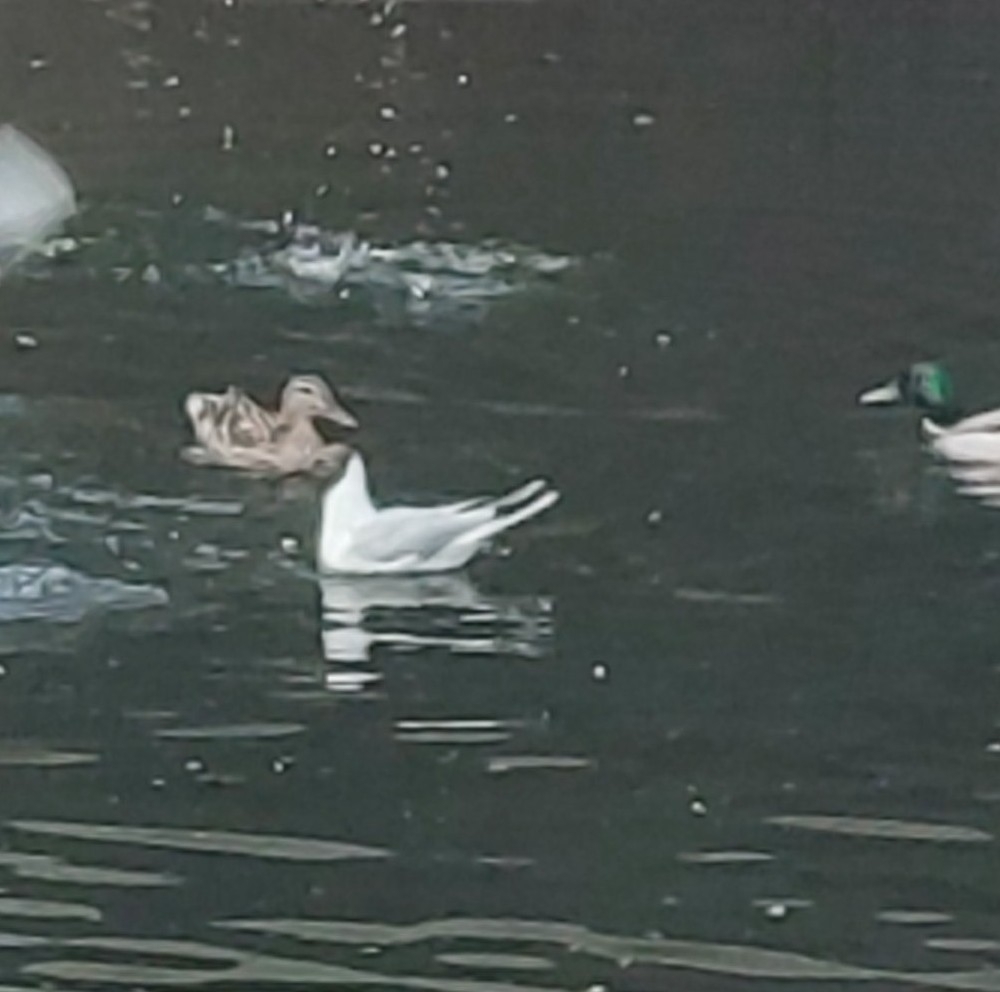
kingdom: Animalia
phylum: Chordata
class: Aves
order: Charadriiformes
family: Laridae
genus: Chroicocephalus
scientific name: Chroicocephalus ridibundus
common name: Black-headed gull
